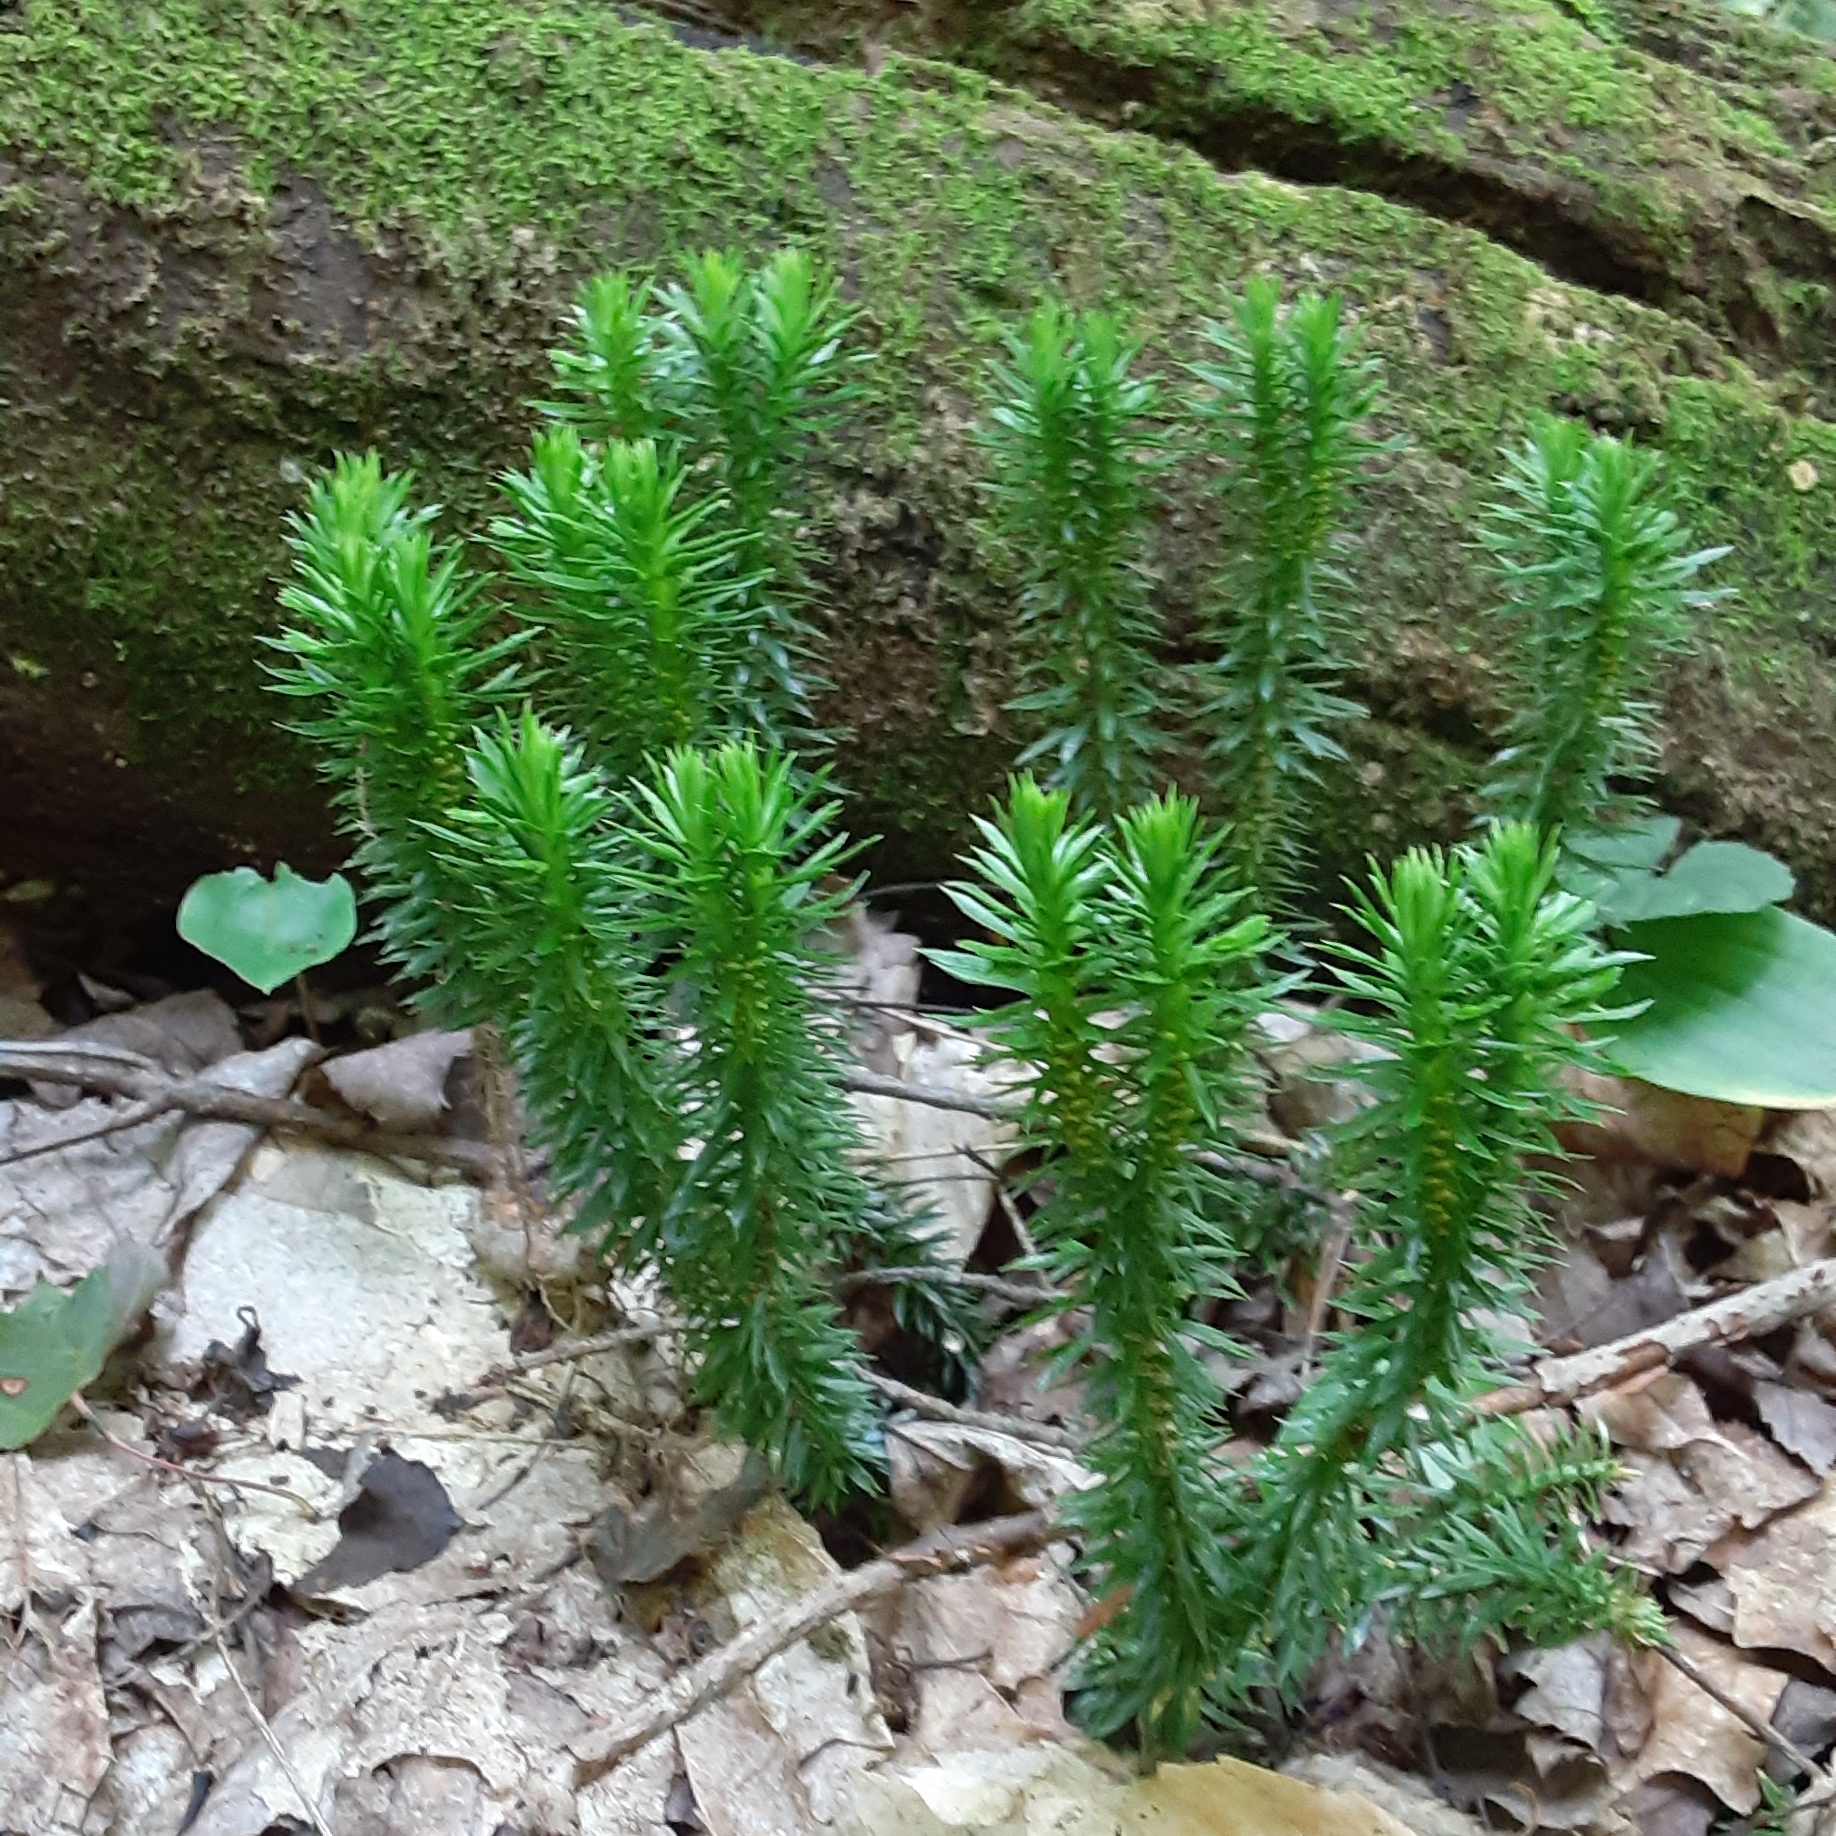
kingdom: Plantae
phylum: Tracheophyta
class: Lycopodiopsida
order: Lycopodiales
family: Lycopodiaceae
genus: Huperzia
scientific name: Huperzia lucidula
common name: Shining clubmoss
